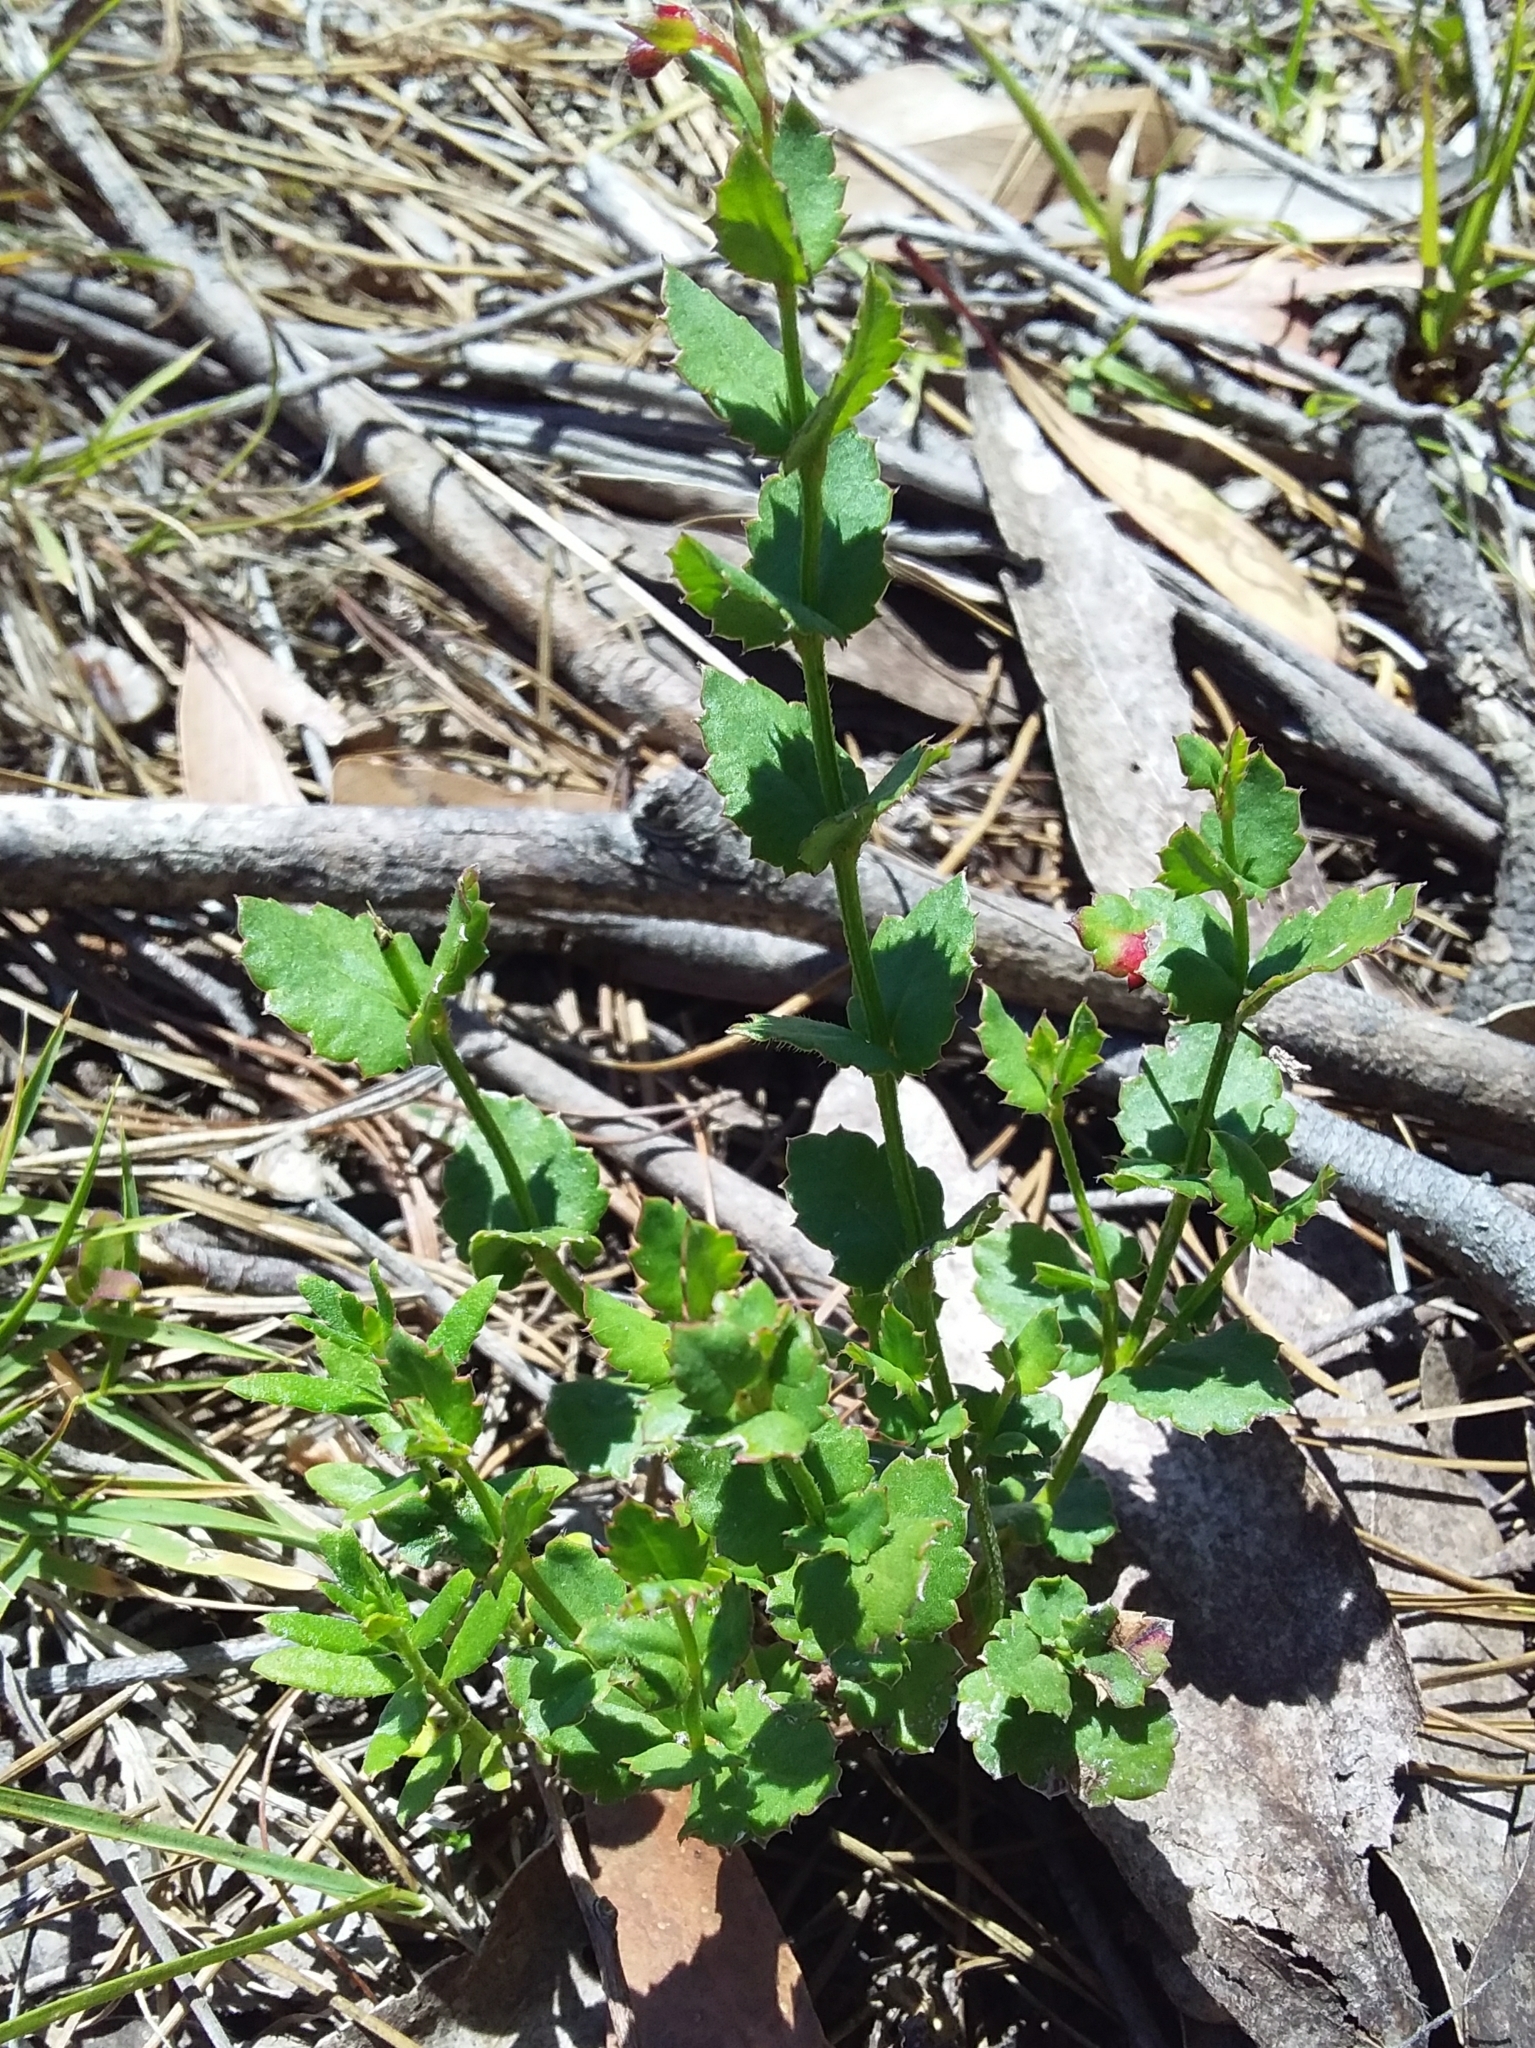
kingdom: Plantae
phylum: Tracheophyta
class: Magnoliopsida
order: Saxifragales
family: Haloragaceae
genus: Gonocarpus
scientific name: Gonocarpus mezianus
